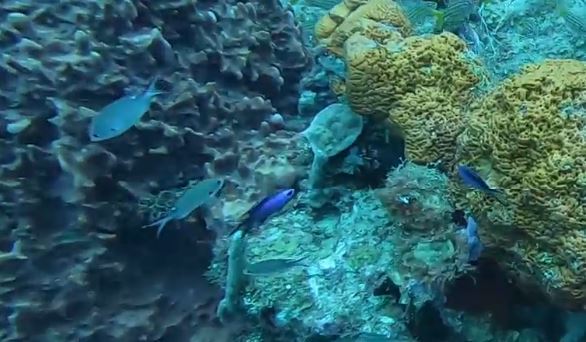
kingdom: Animalia
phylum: Chordata
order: Perciformes
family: Pomacentridae
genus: Chromis
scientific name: Chromis multilineata
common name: Brown chromis
